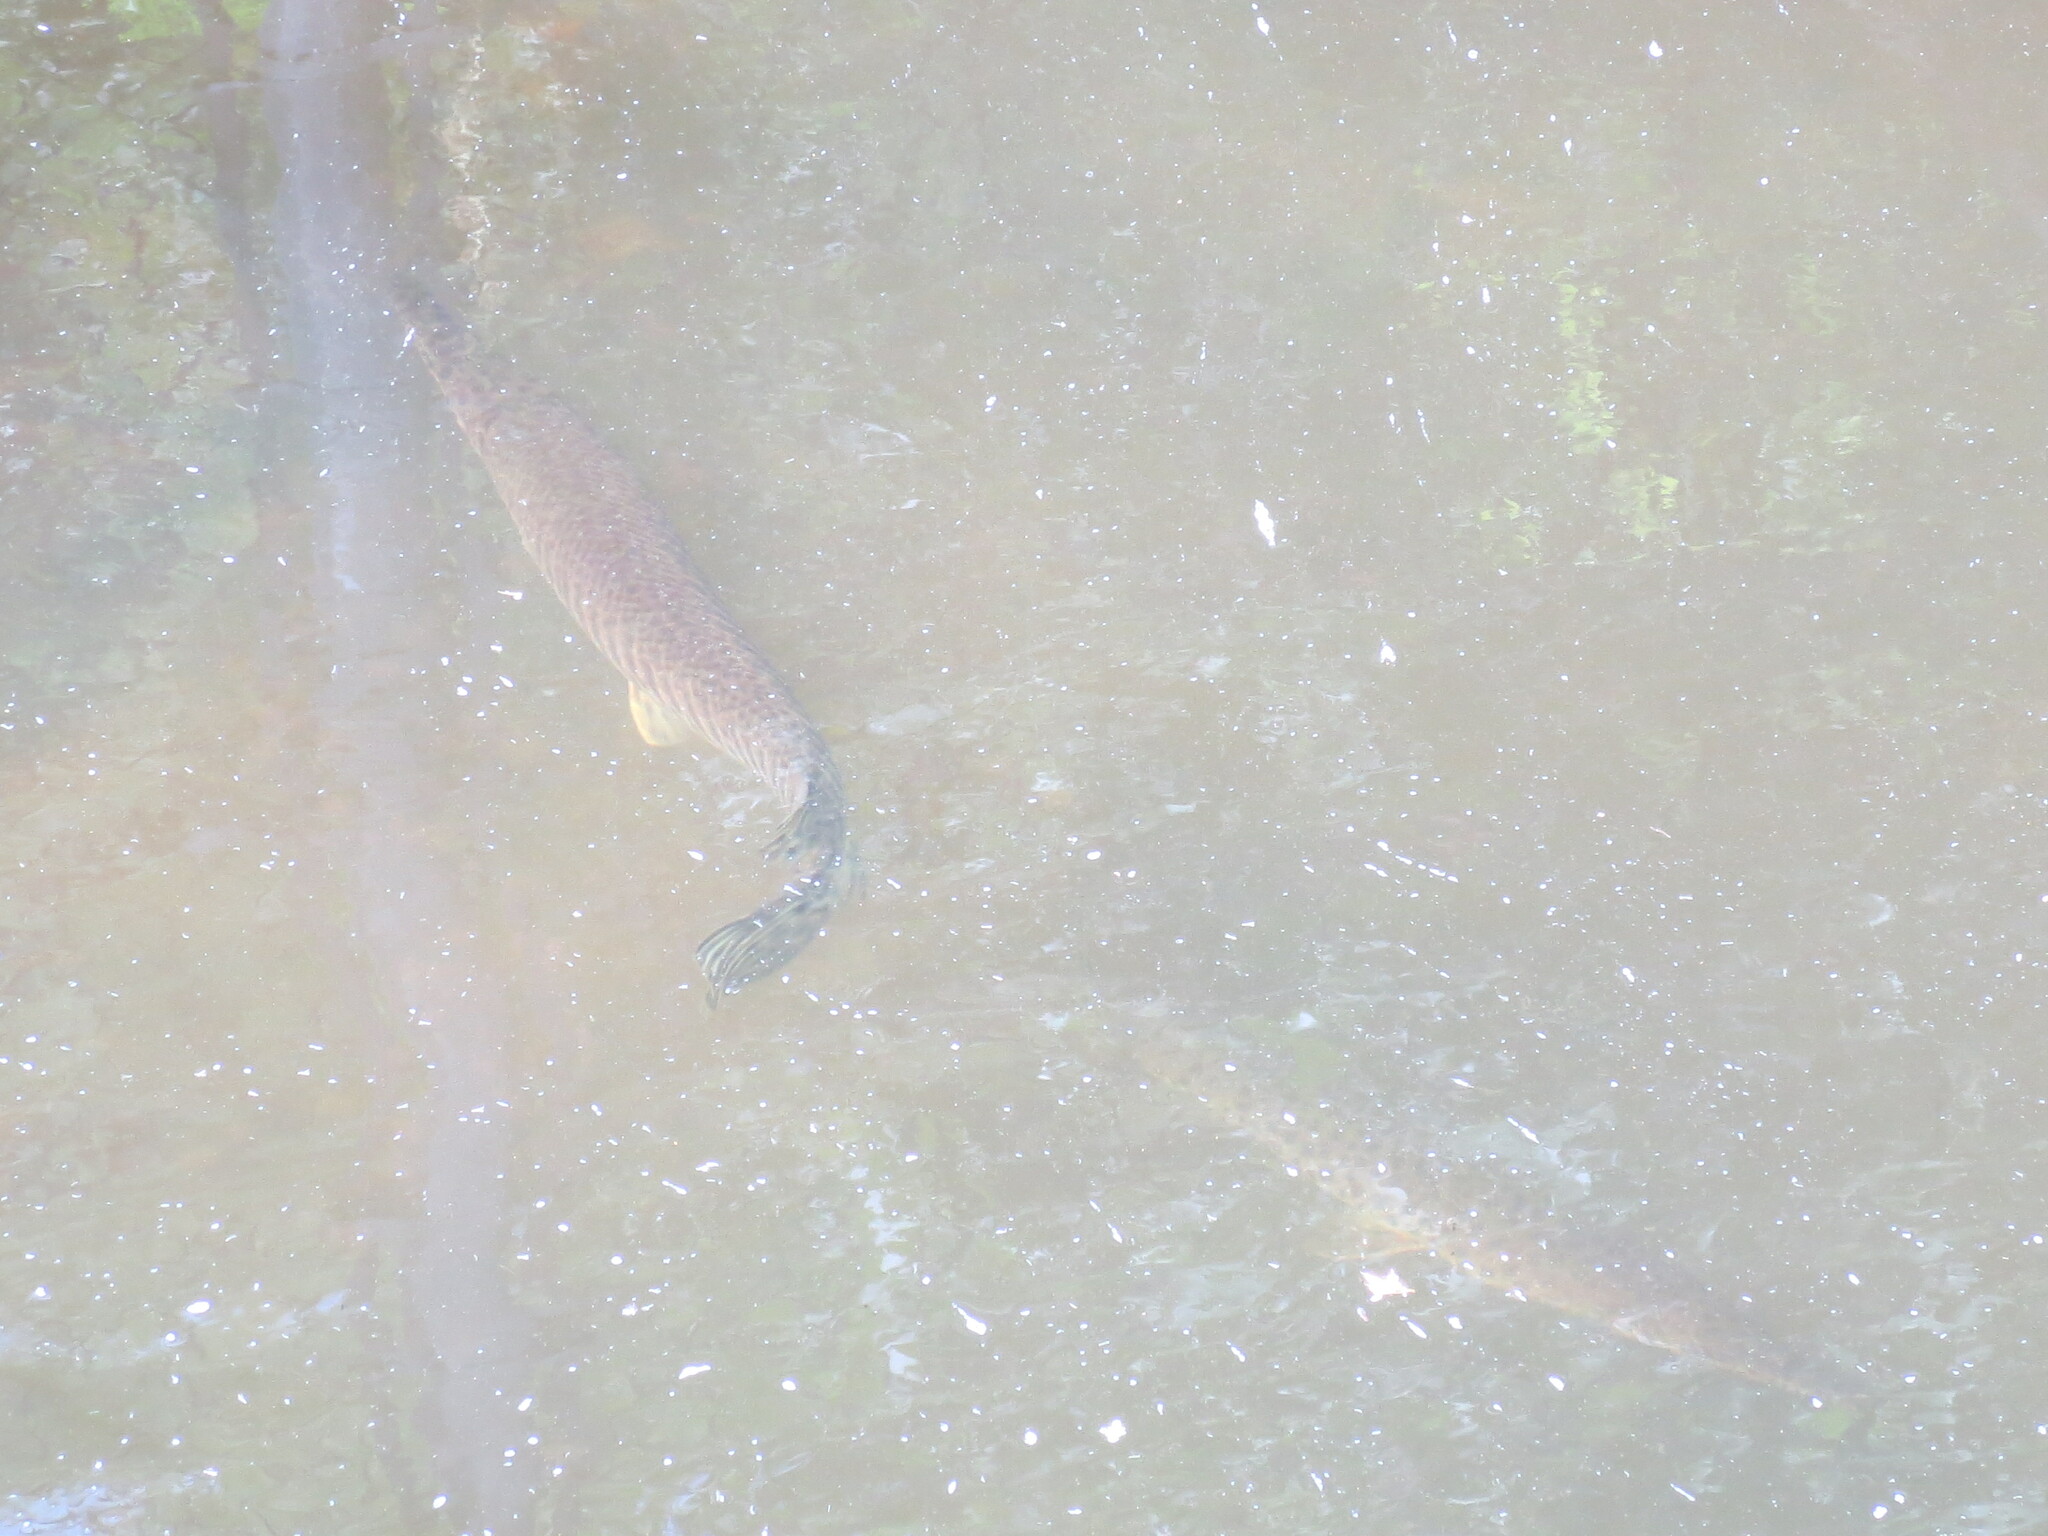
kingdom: Animalia
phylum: Chordata
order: Lepisosteiformes
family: Lepisosteidae
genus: Lepisosteus
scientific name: Lepisosteus platyrhincus
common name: Florida gar
